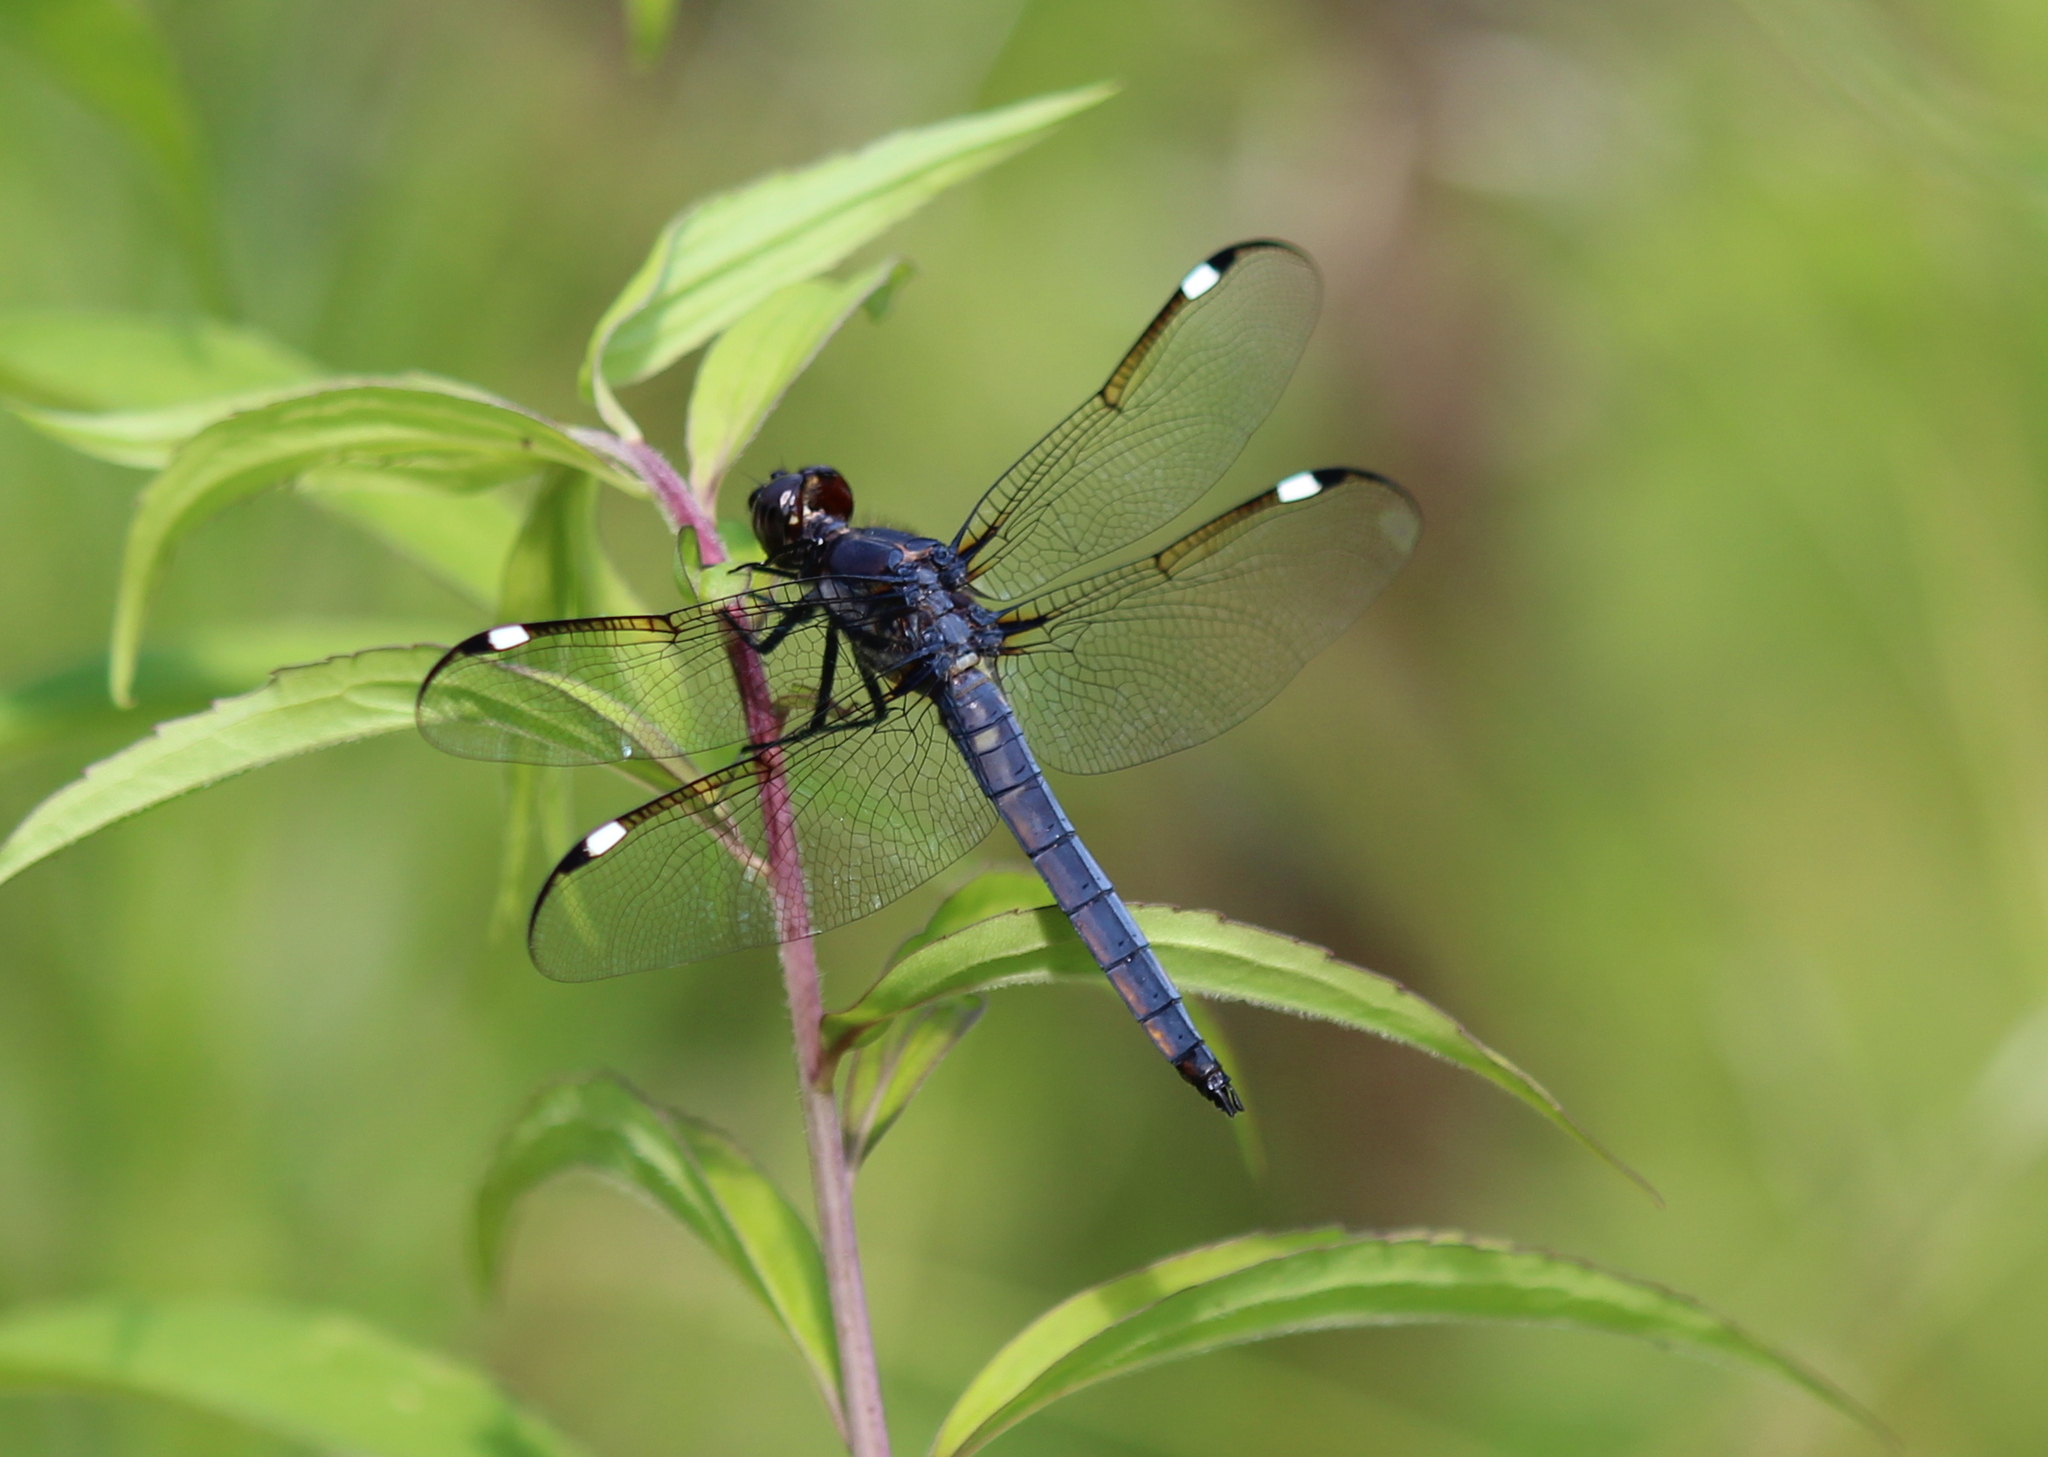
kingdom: Animalia
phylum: Arthropoda
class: Insecta
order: Odonata
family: Libellulidae
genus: Libellula
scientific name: Libellula cyanea
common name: Spangled skimmer
